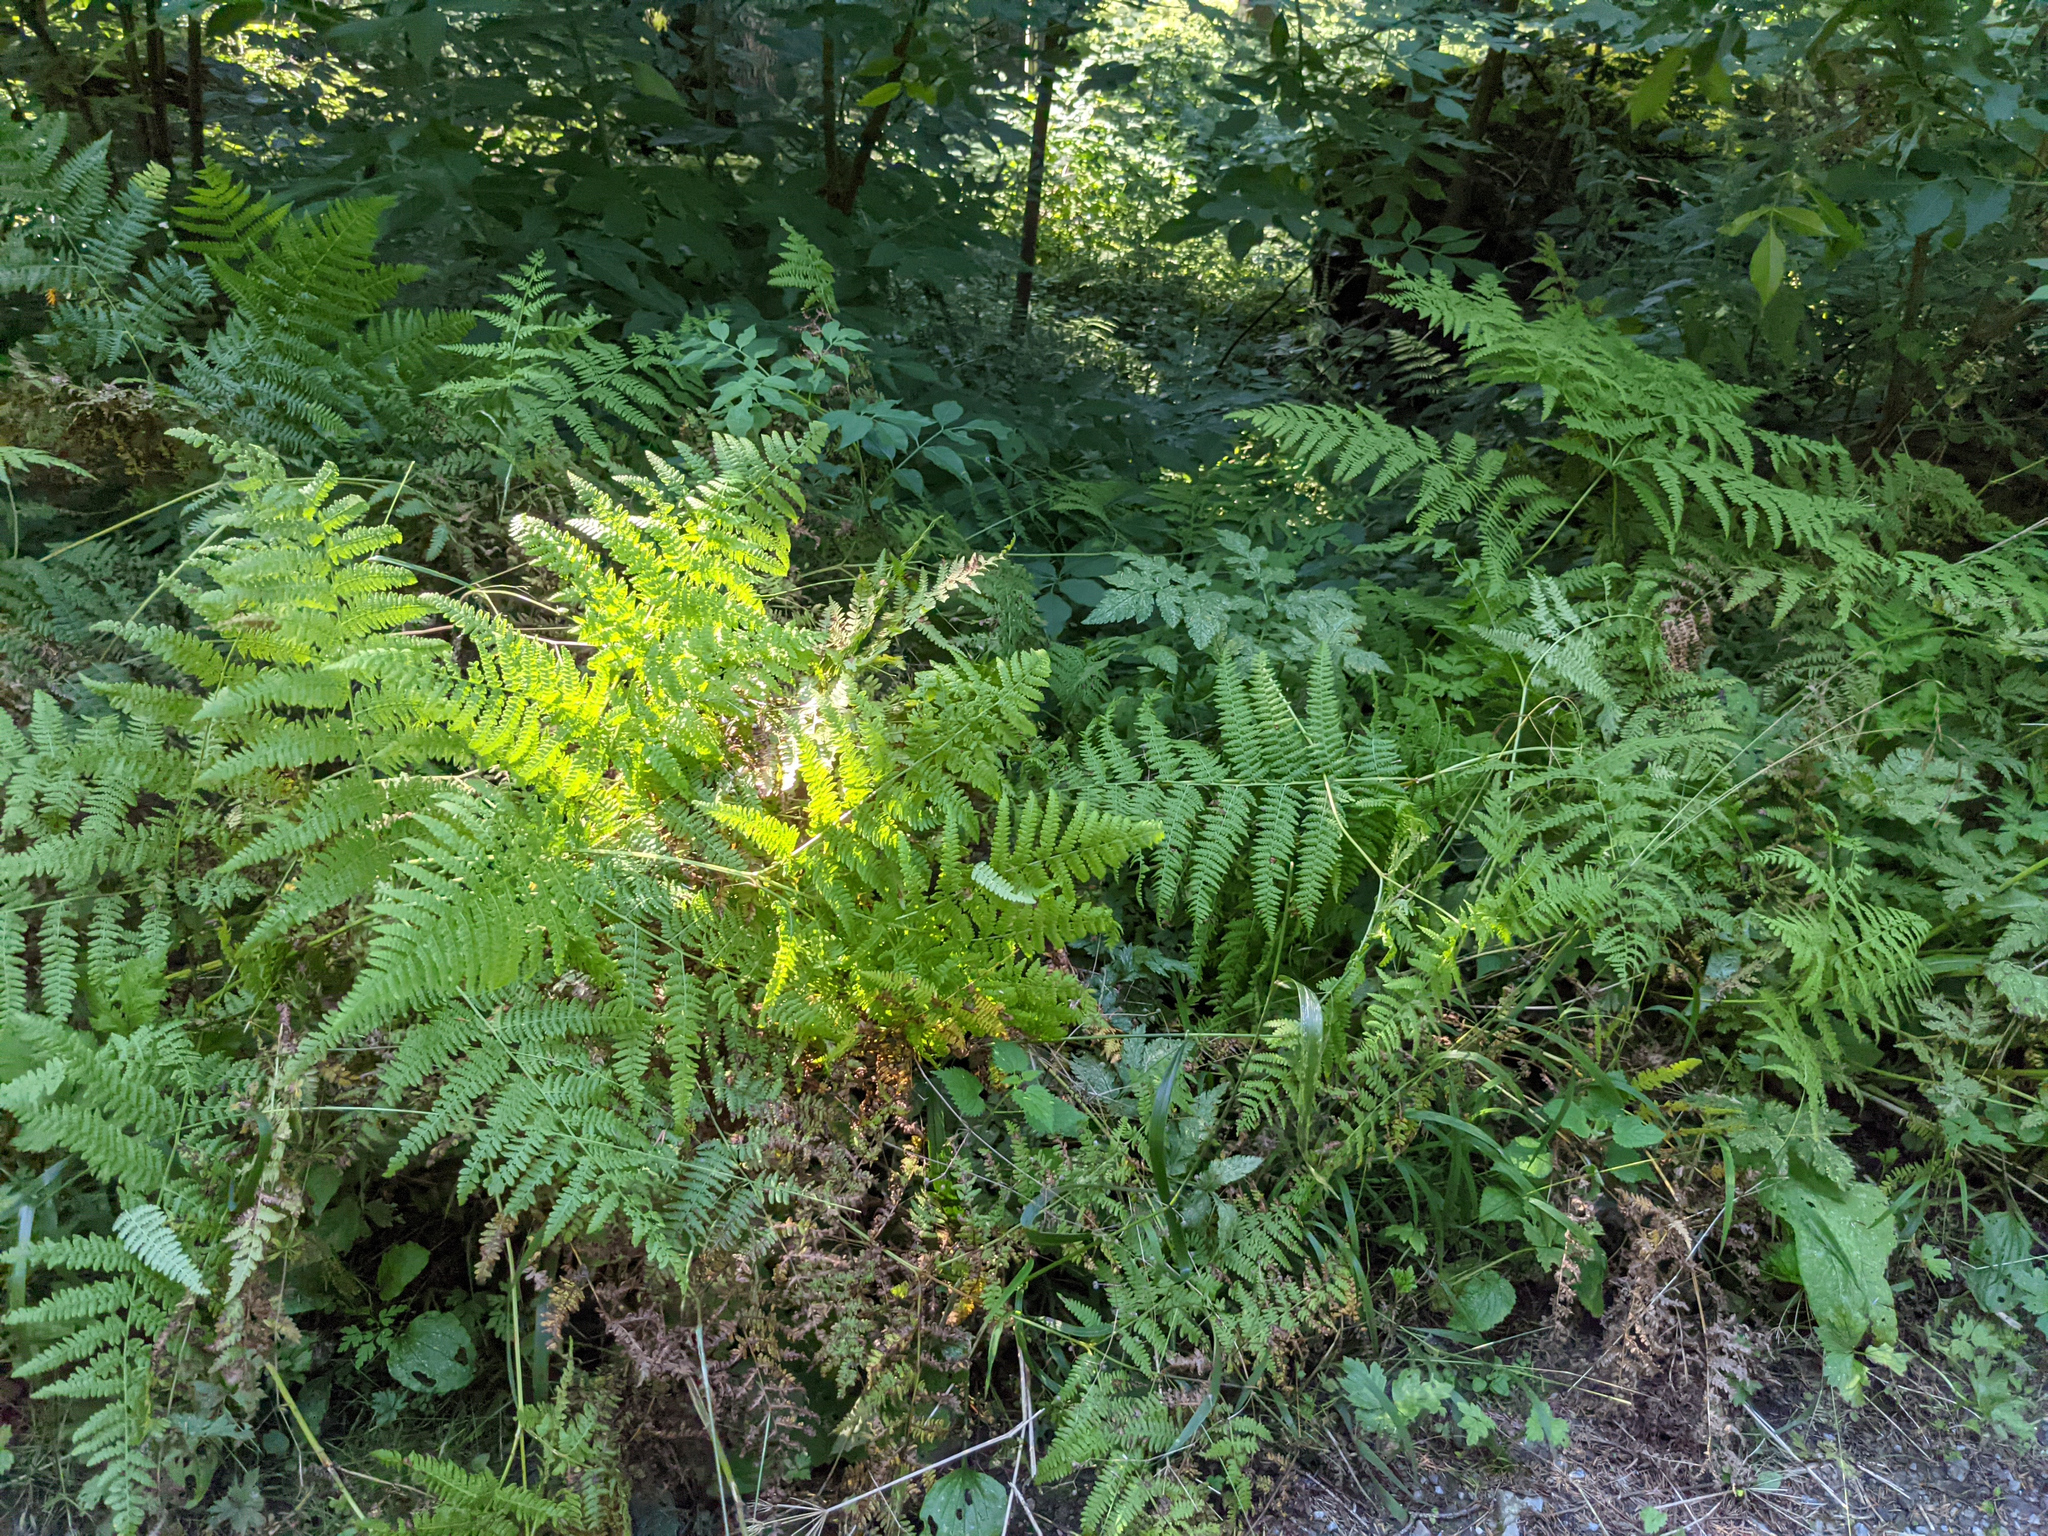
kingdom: Plantae
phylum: Tracheophyta
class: Polypodiopsida
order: Polypodiales
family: Dennstaedtiaceae
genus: Pteridium
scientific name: Pteridium aquilinum
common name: Bracken
